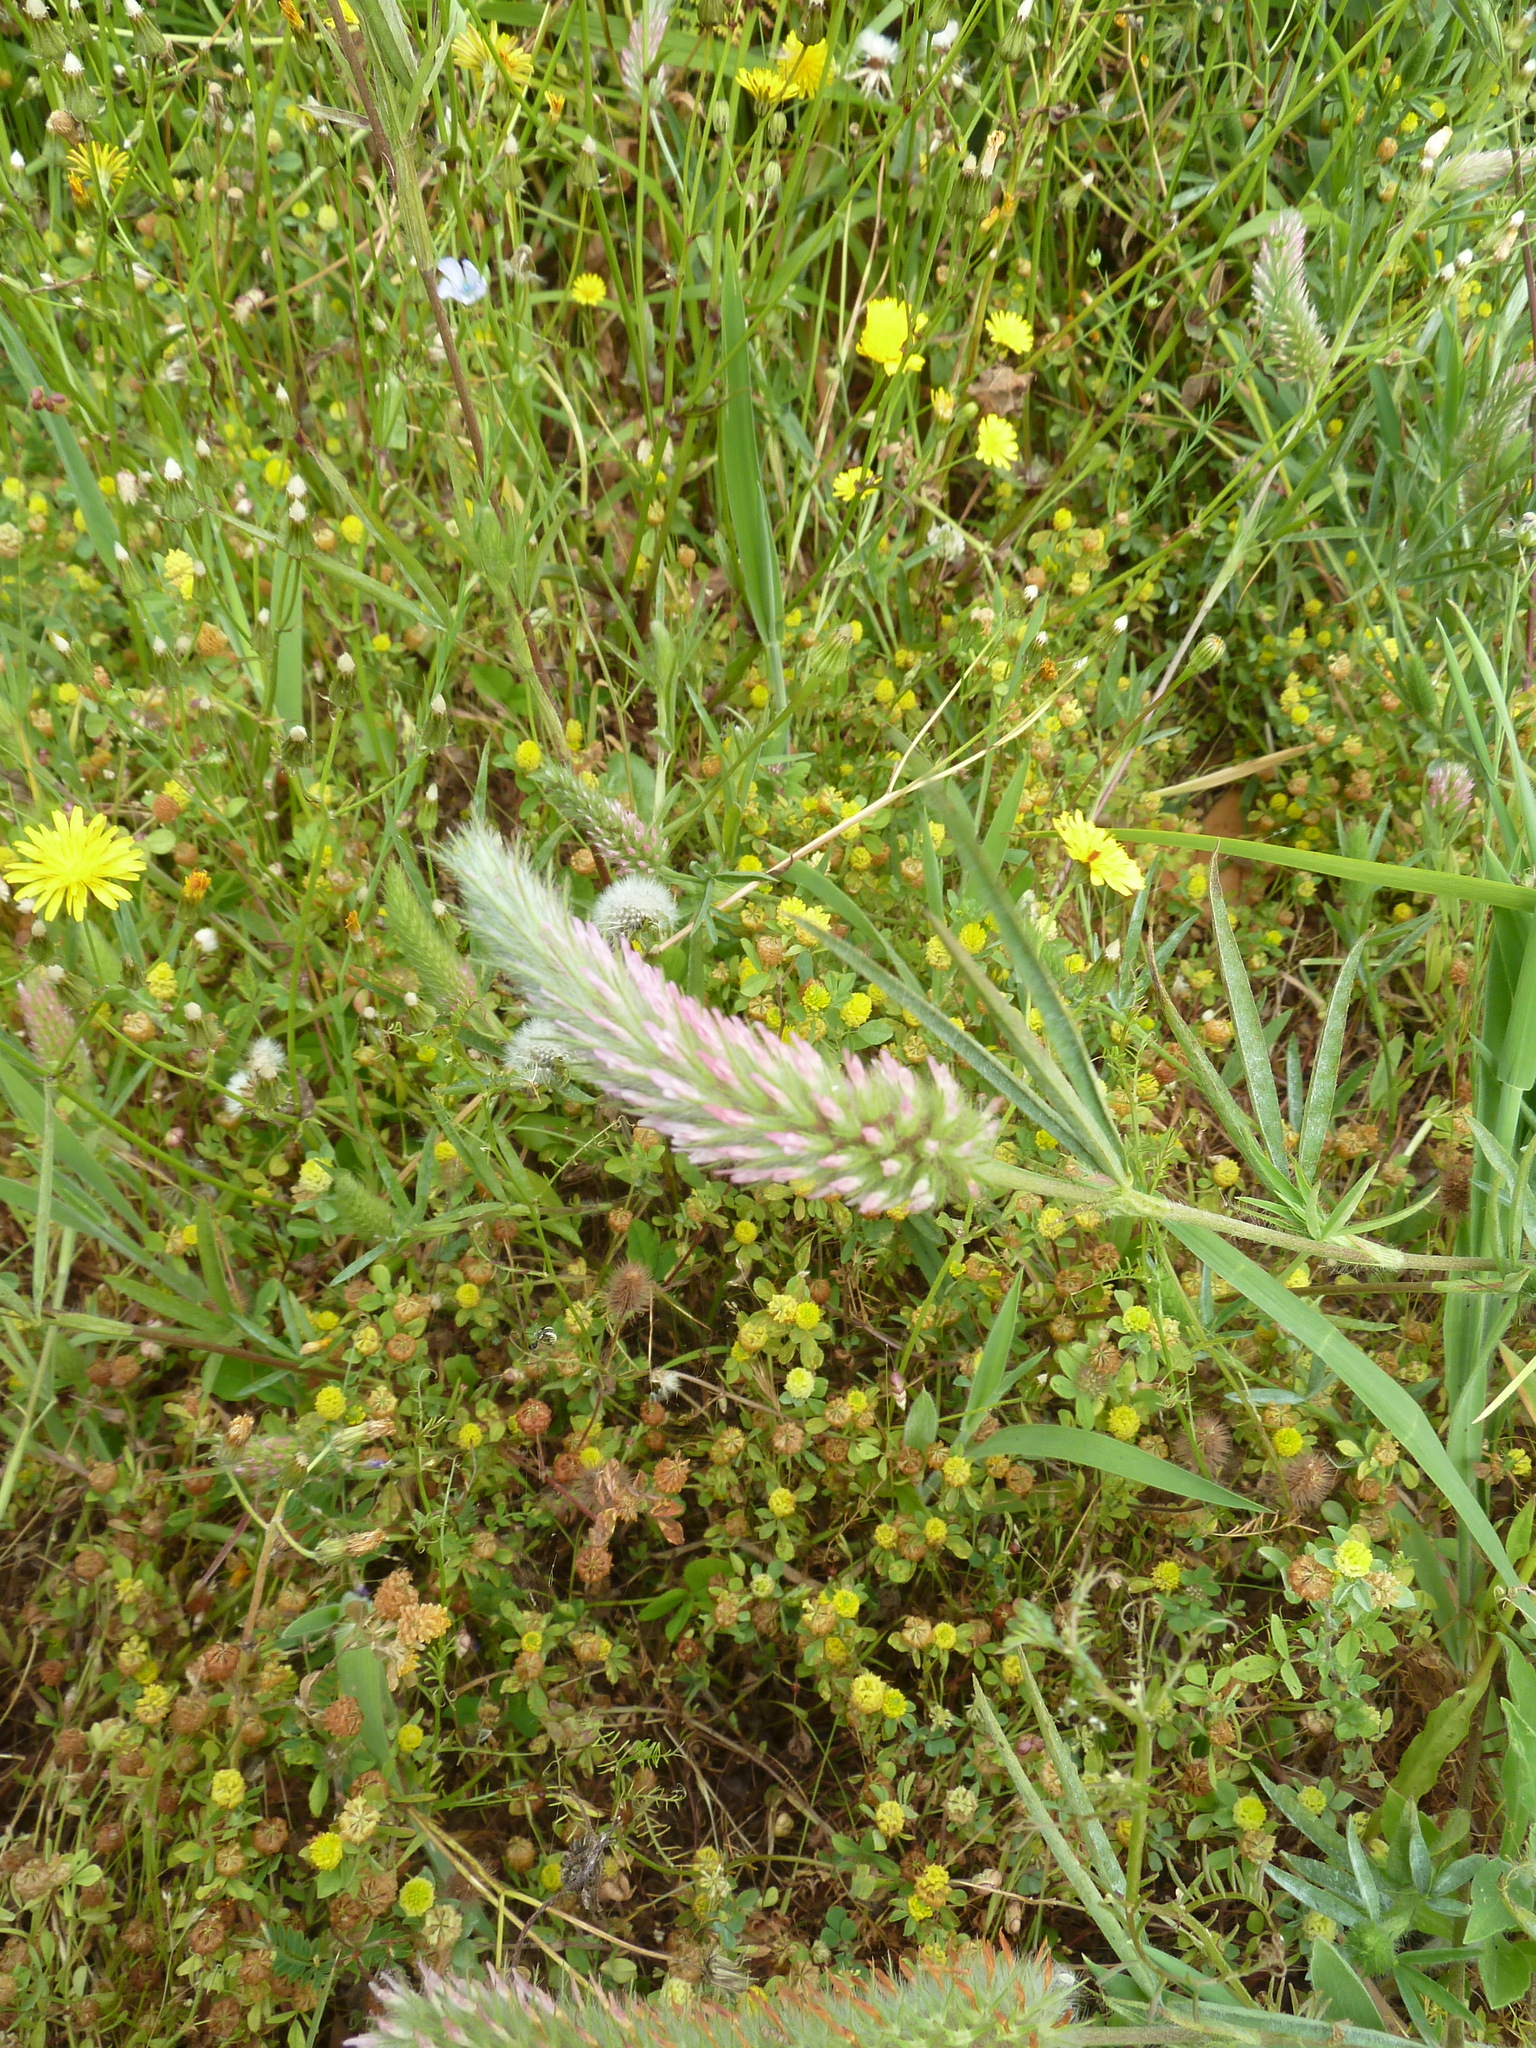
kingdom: Plantae
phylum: Tracheophyta
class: Magnoliopsida
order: Fabales
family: Fabaceae
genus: Trifolium
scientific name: Trifolium angustifolium
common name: Narrow clover
